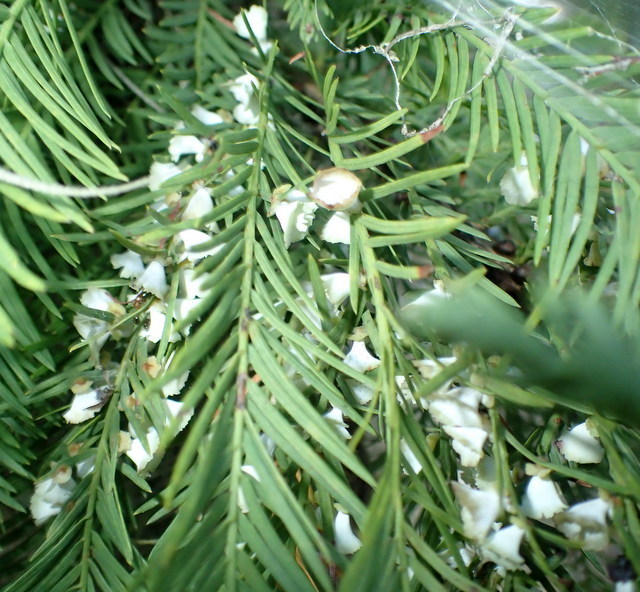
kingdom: Animalia
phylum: Arthropoda
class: Insecta
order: Diptera
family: Cecidomyiidae
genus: Taxodiomyia
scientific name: Taxodiomyia cupressi
